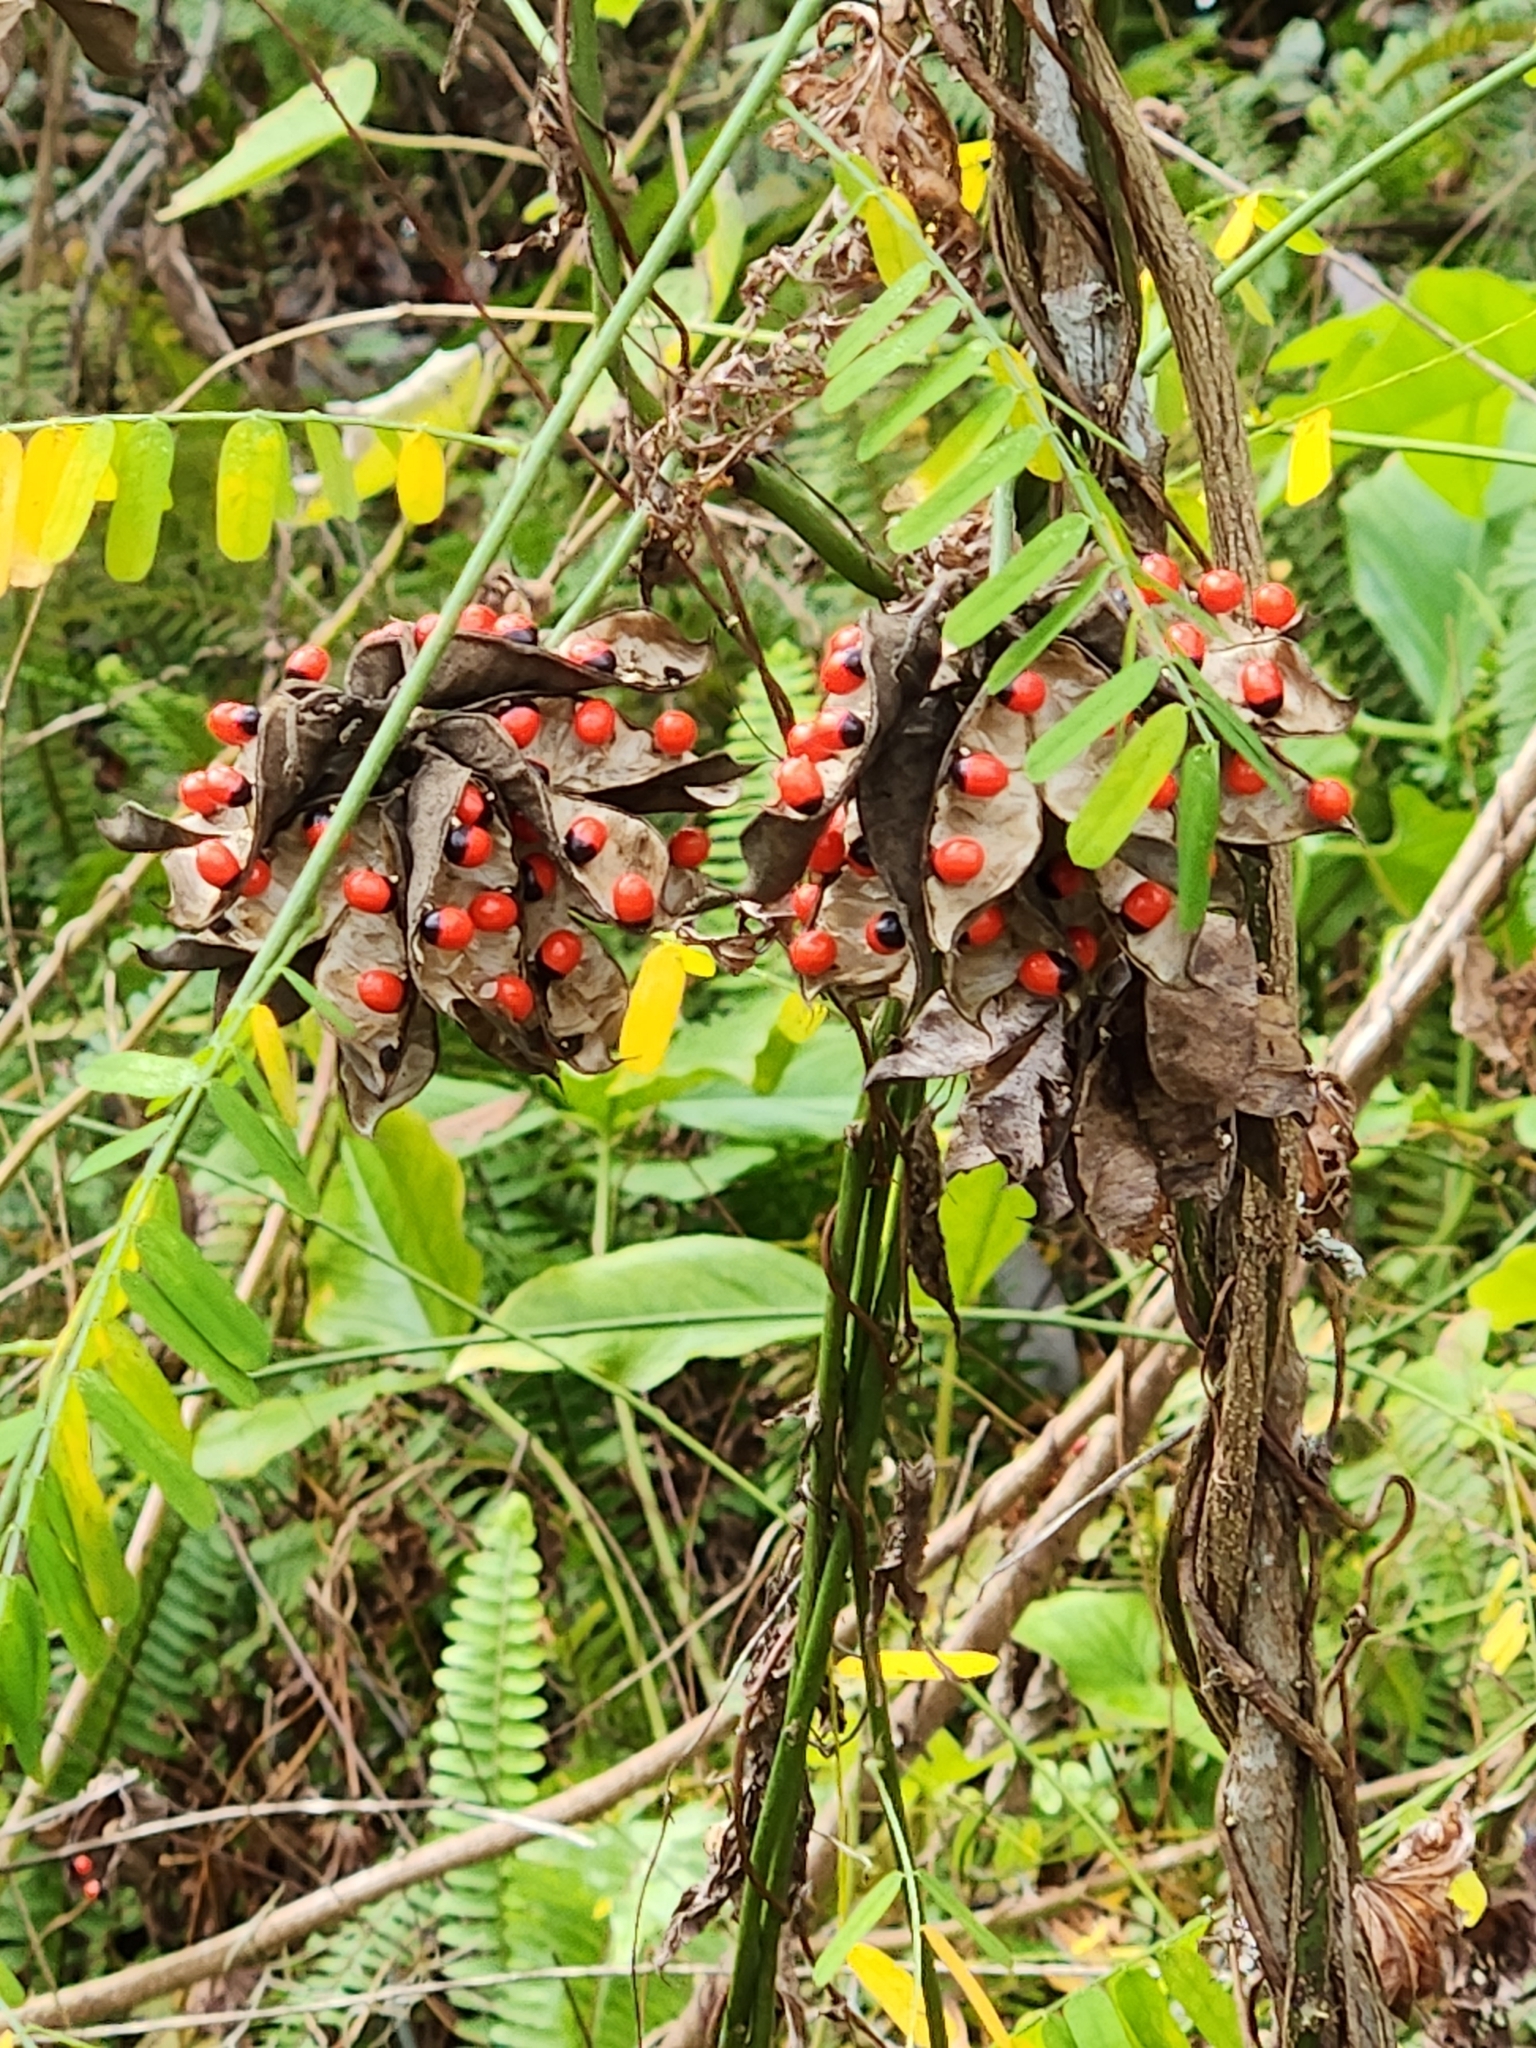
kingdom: Plantae
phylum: Tracheophyta
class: Magnoliopsida
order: Fabales
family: Fabaceae
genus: Abrus
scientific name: Abrus precatorius
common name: Rosarypea
